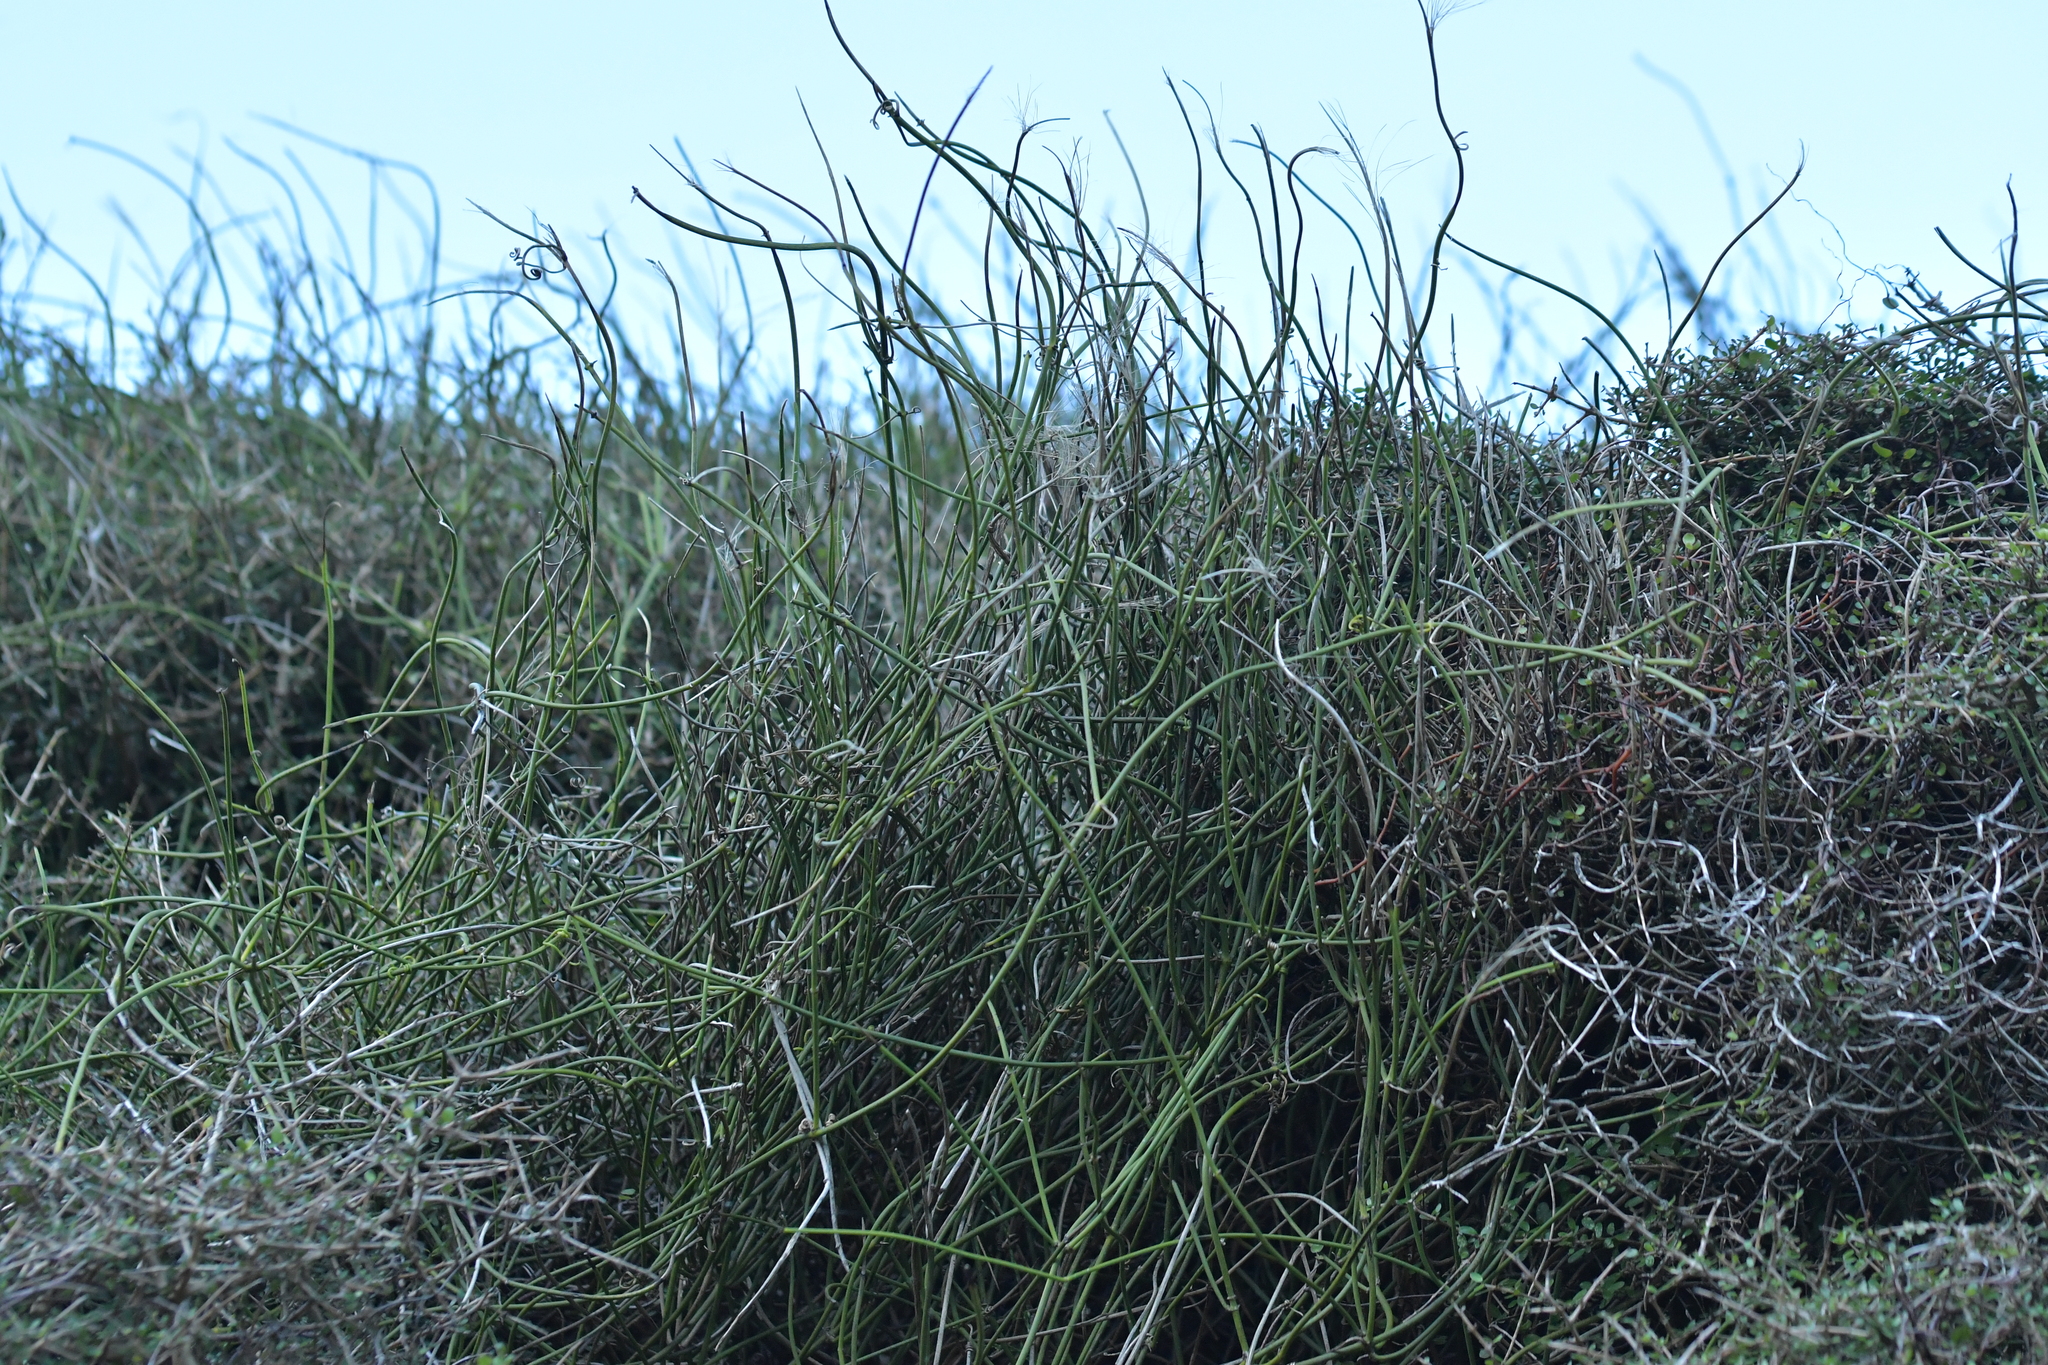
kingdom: Plantae
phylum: Tracheophyta
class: Magnoliopsida
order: Ranunculales
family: Ranunculaceae
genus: Clematis
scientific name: Clematis afoliata
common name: Rush-stem clematis
